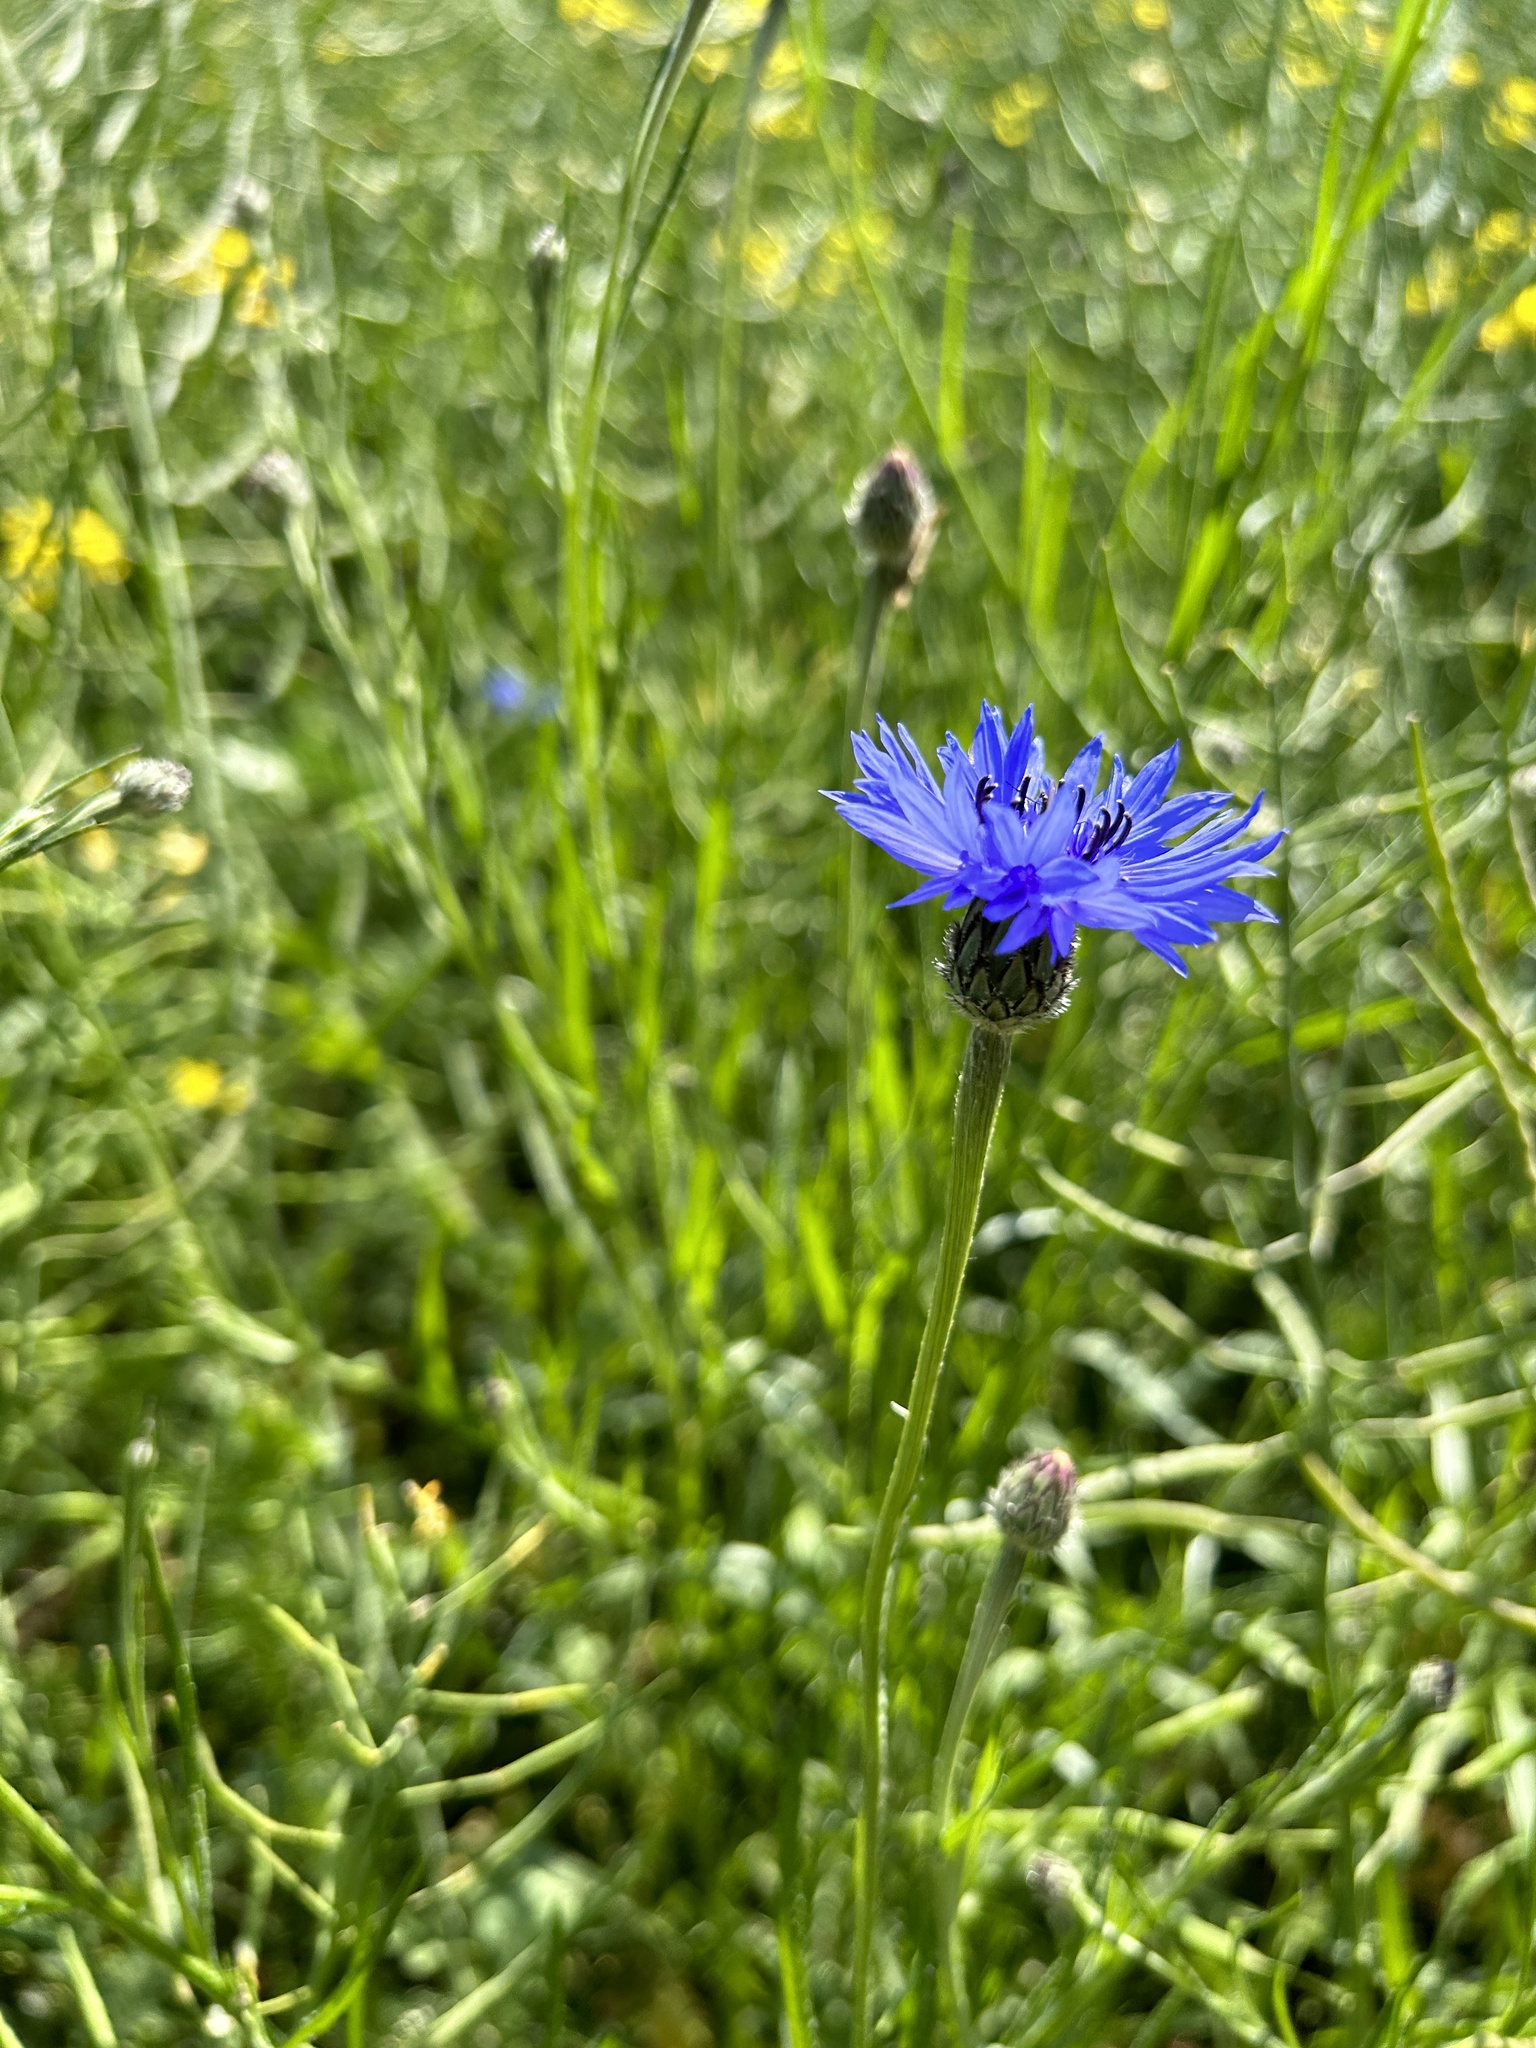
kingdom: Plantae
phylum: Tracheophyta
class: Magnoliopsida
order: Asterales
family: Asteraceae
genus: Centaurea
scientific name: Centaurea cyanus
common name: Cornflower
